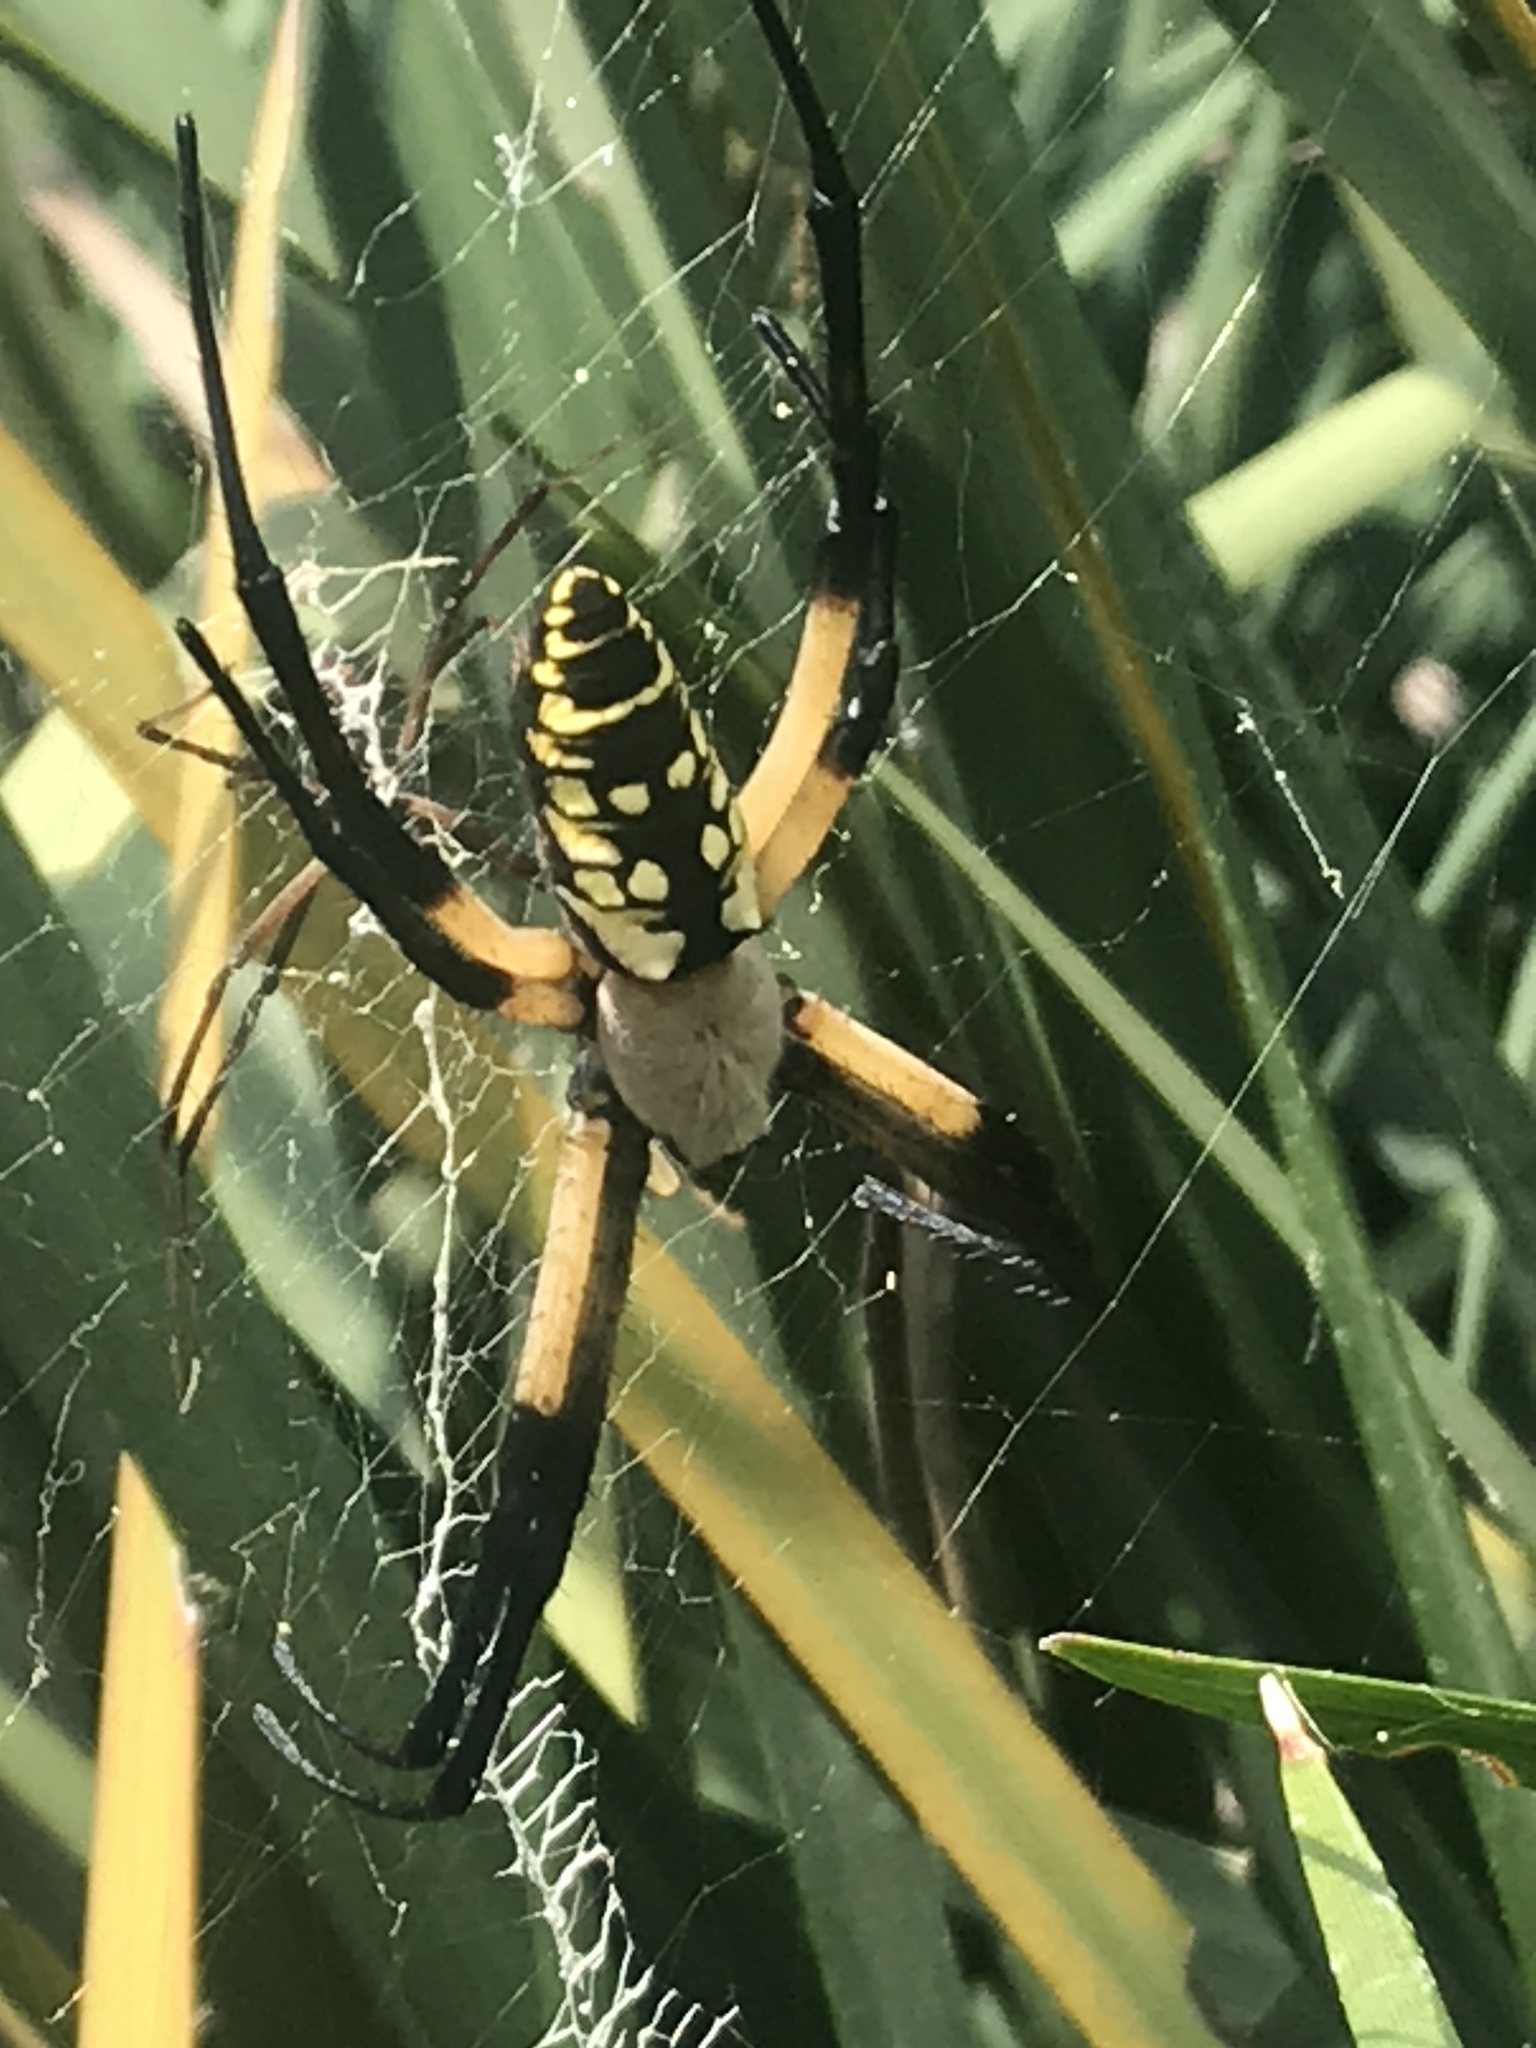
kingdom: Animalia
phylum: Arthropoda
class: Arachnida
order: Araneae
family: Araneidae
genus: Argiope
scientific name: Argiope aurantia
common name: Orb weavers
